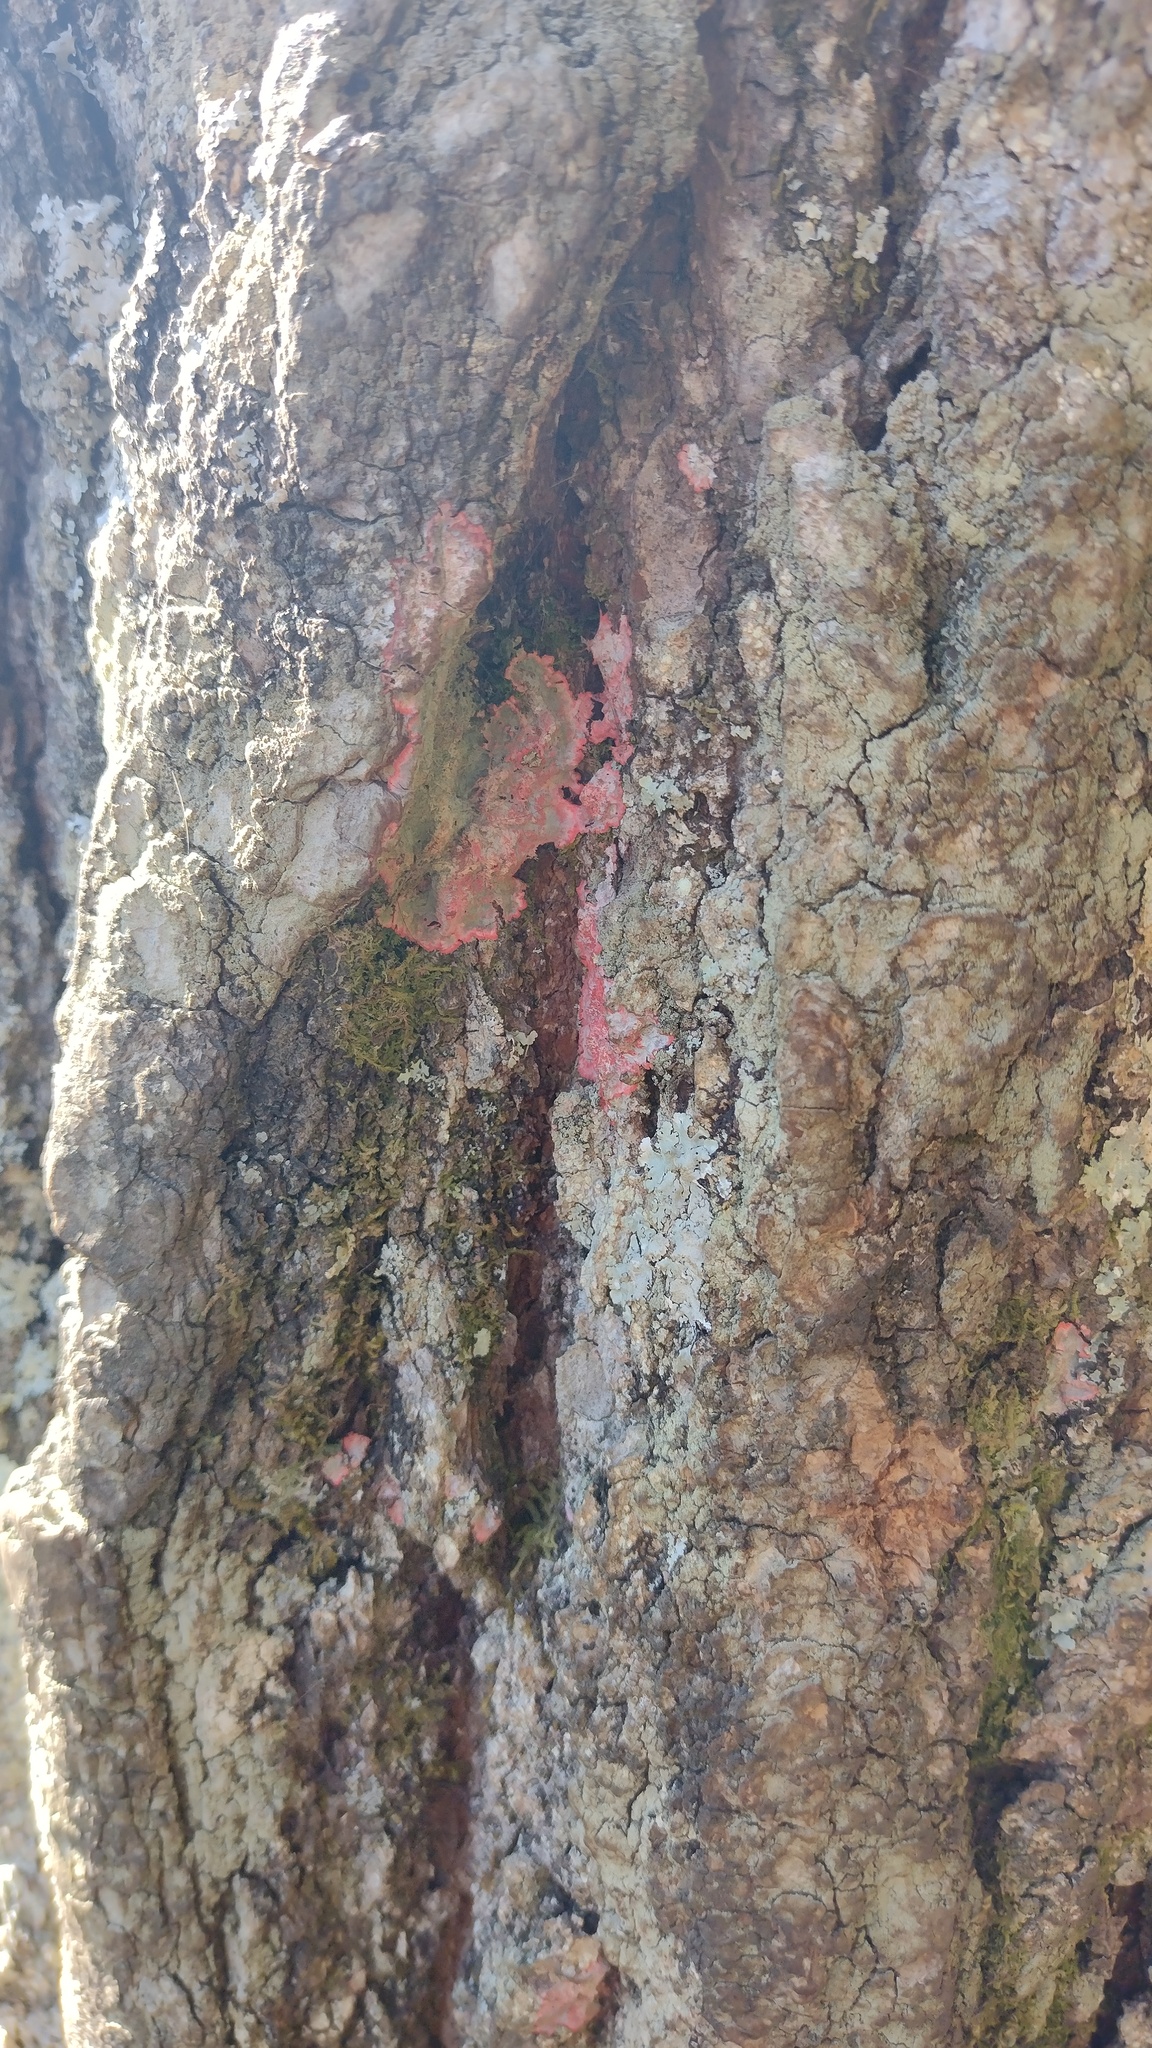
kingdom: Fungi
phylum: Ascomycota
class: Arthoniomycetes
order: Arthoniales
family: Arthoniaceae
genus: Herpothallon
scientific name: Herpothallon rubrocinctum
